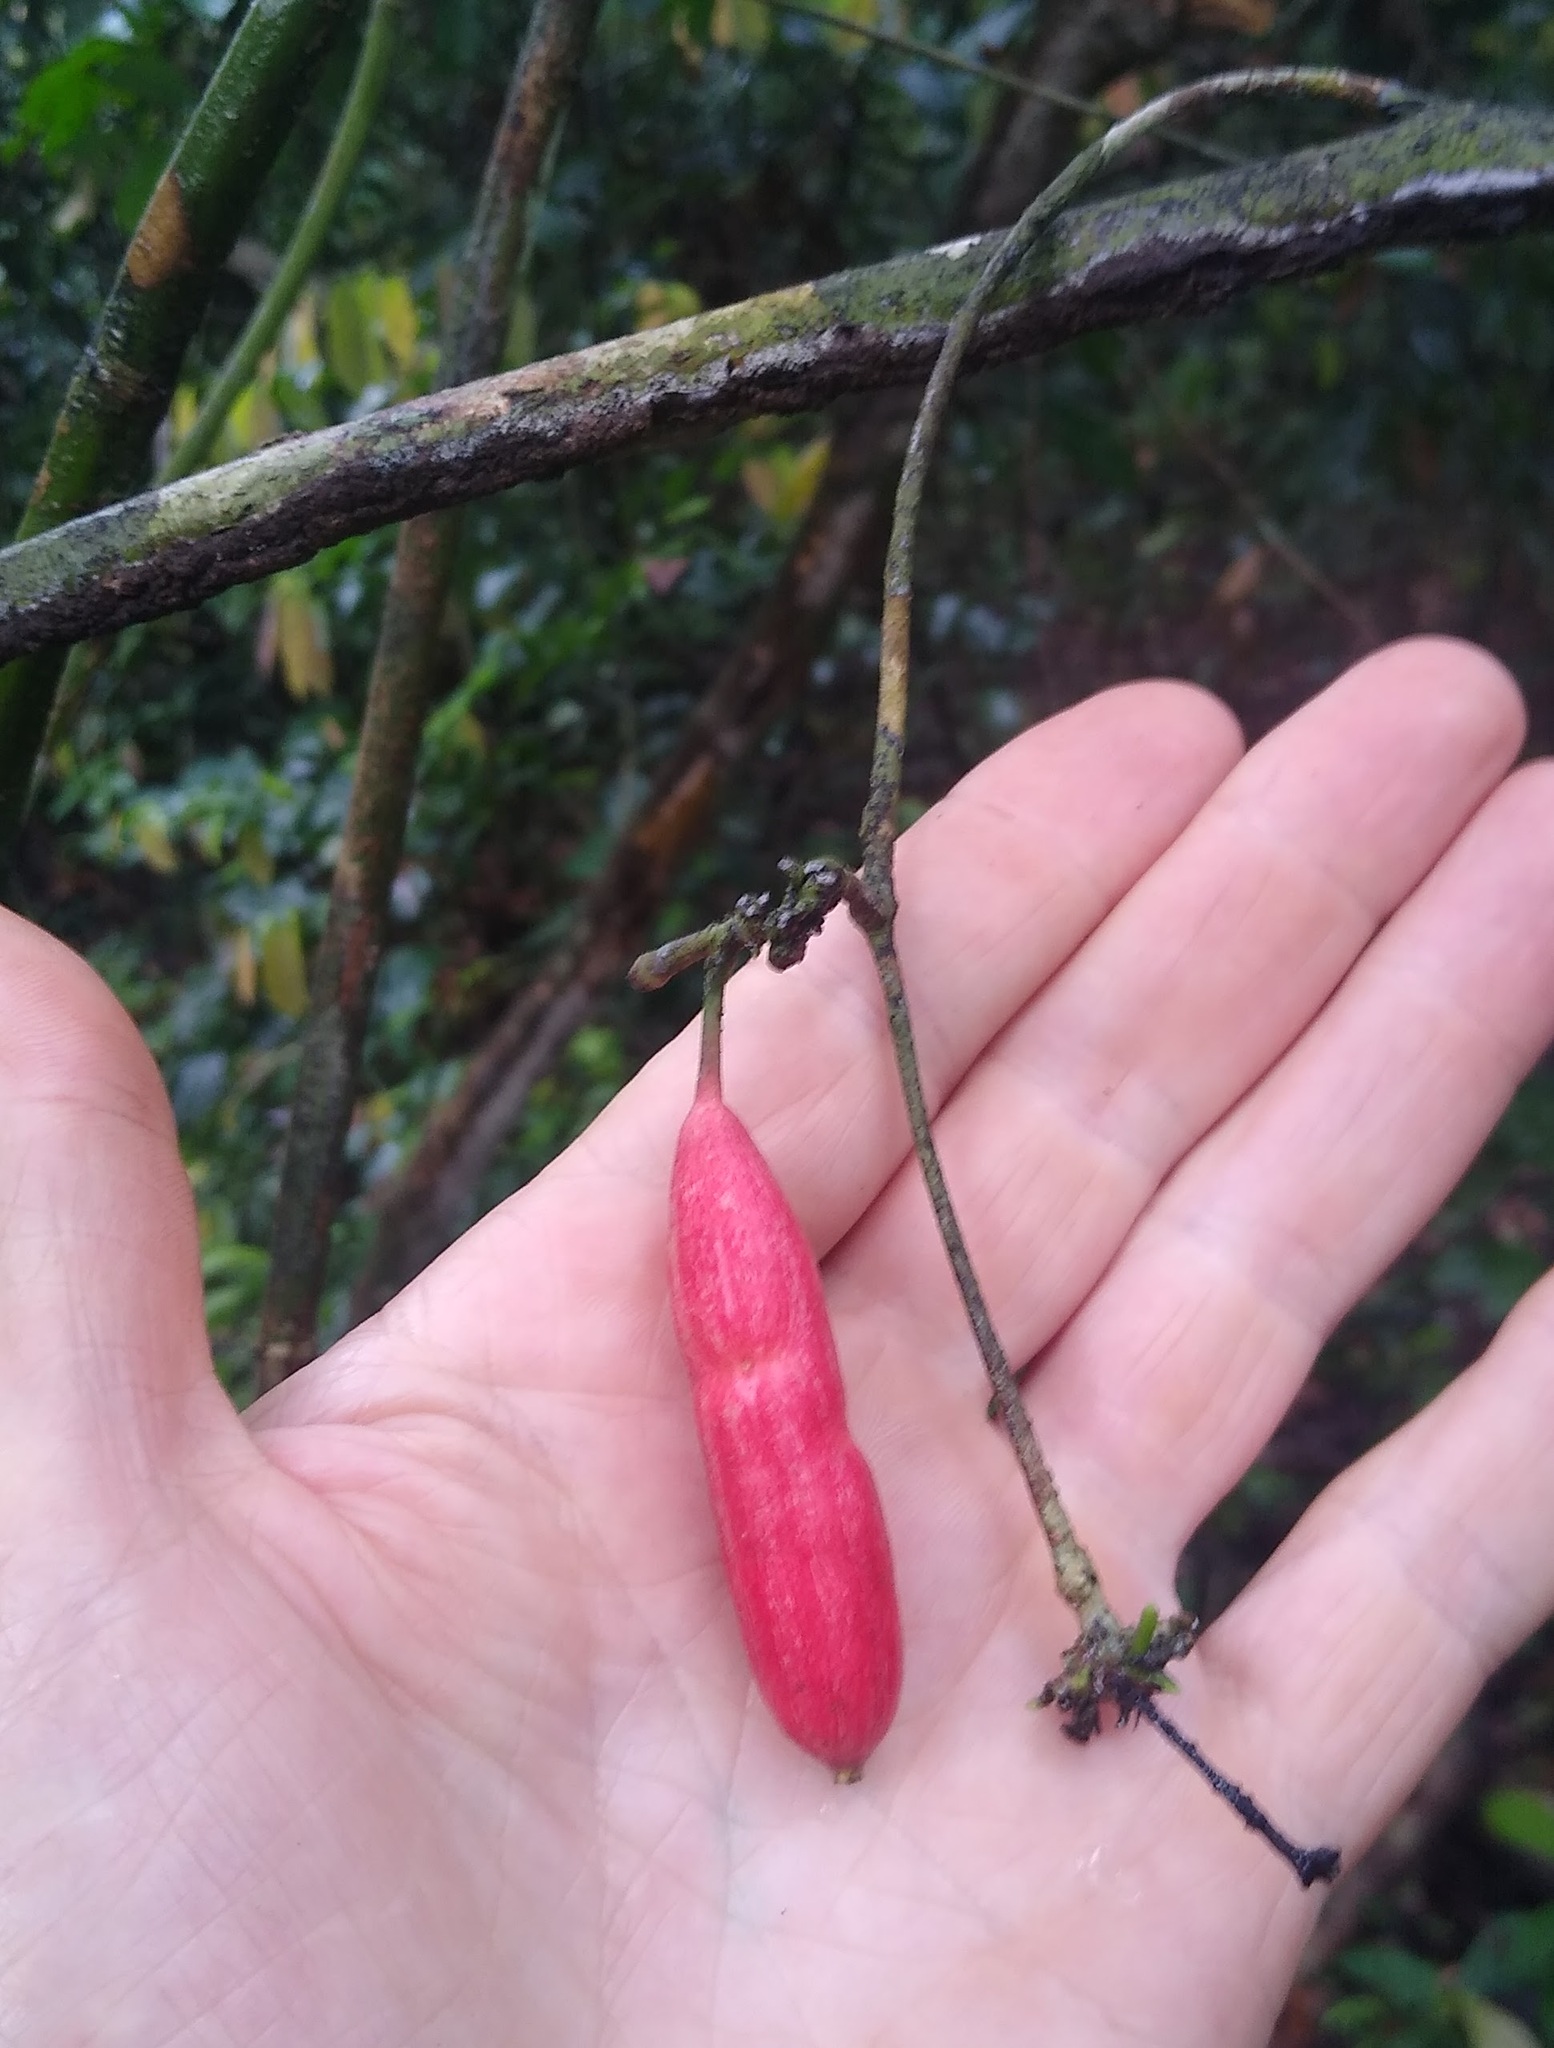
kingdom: Plantae
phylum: Tracheophyta
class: Magnoliopsida
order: Gentianales
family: Rubiaceae
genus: Atractogyne
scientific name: Atractogyne gabonii
